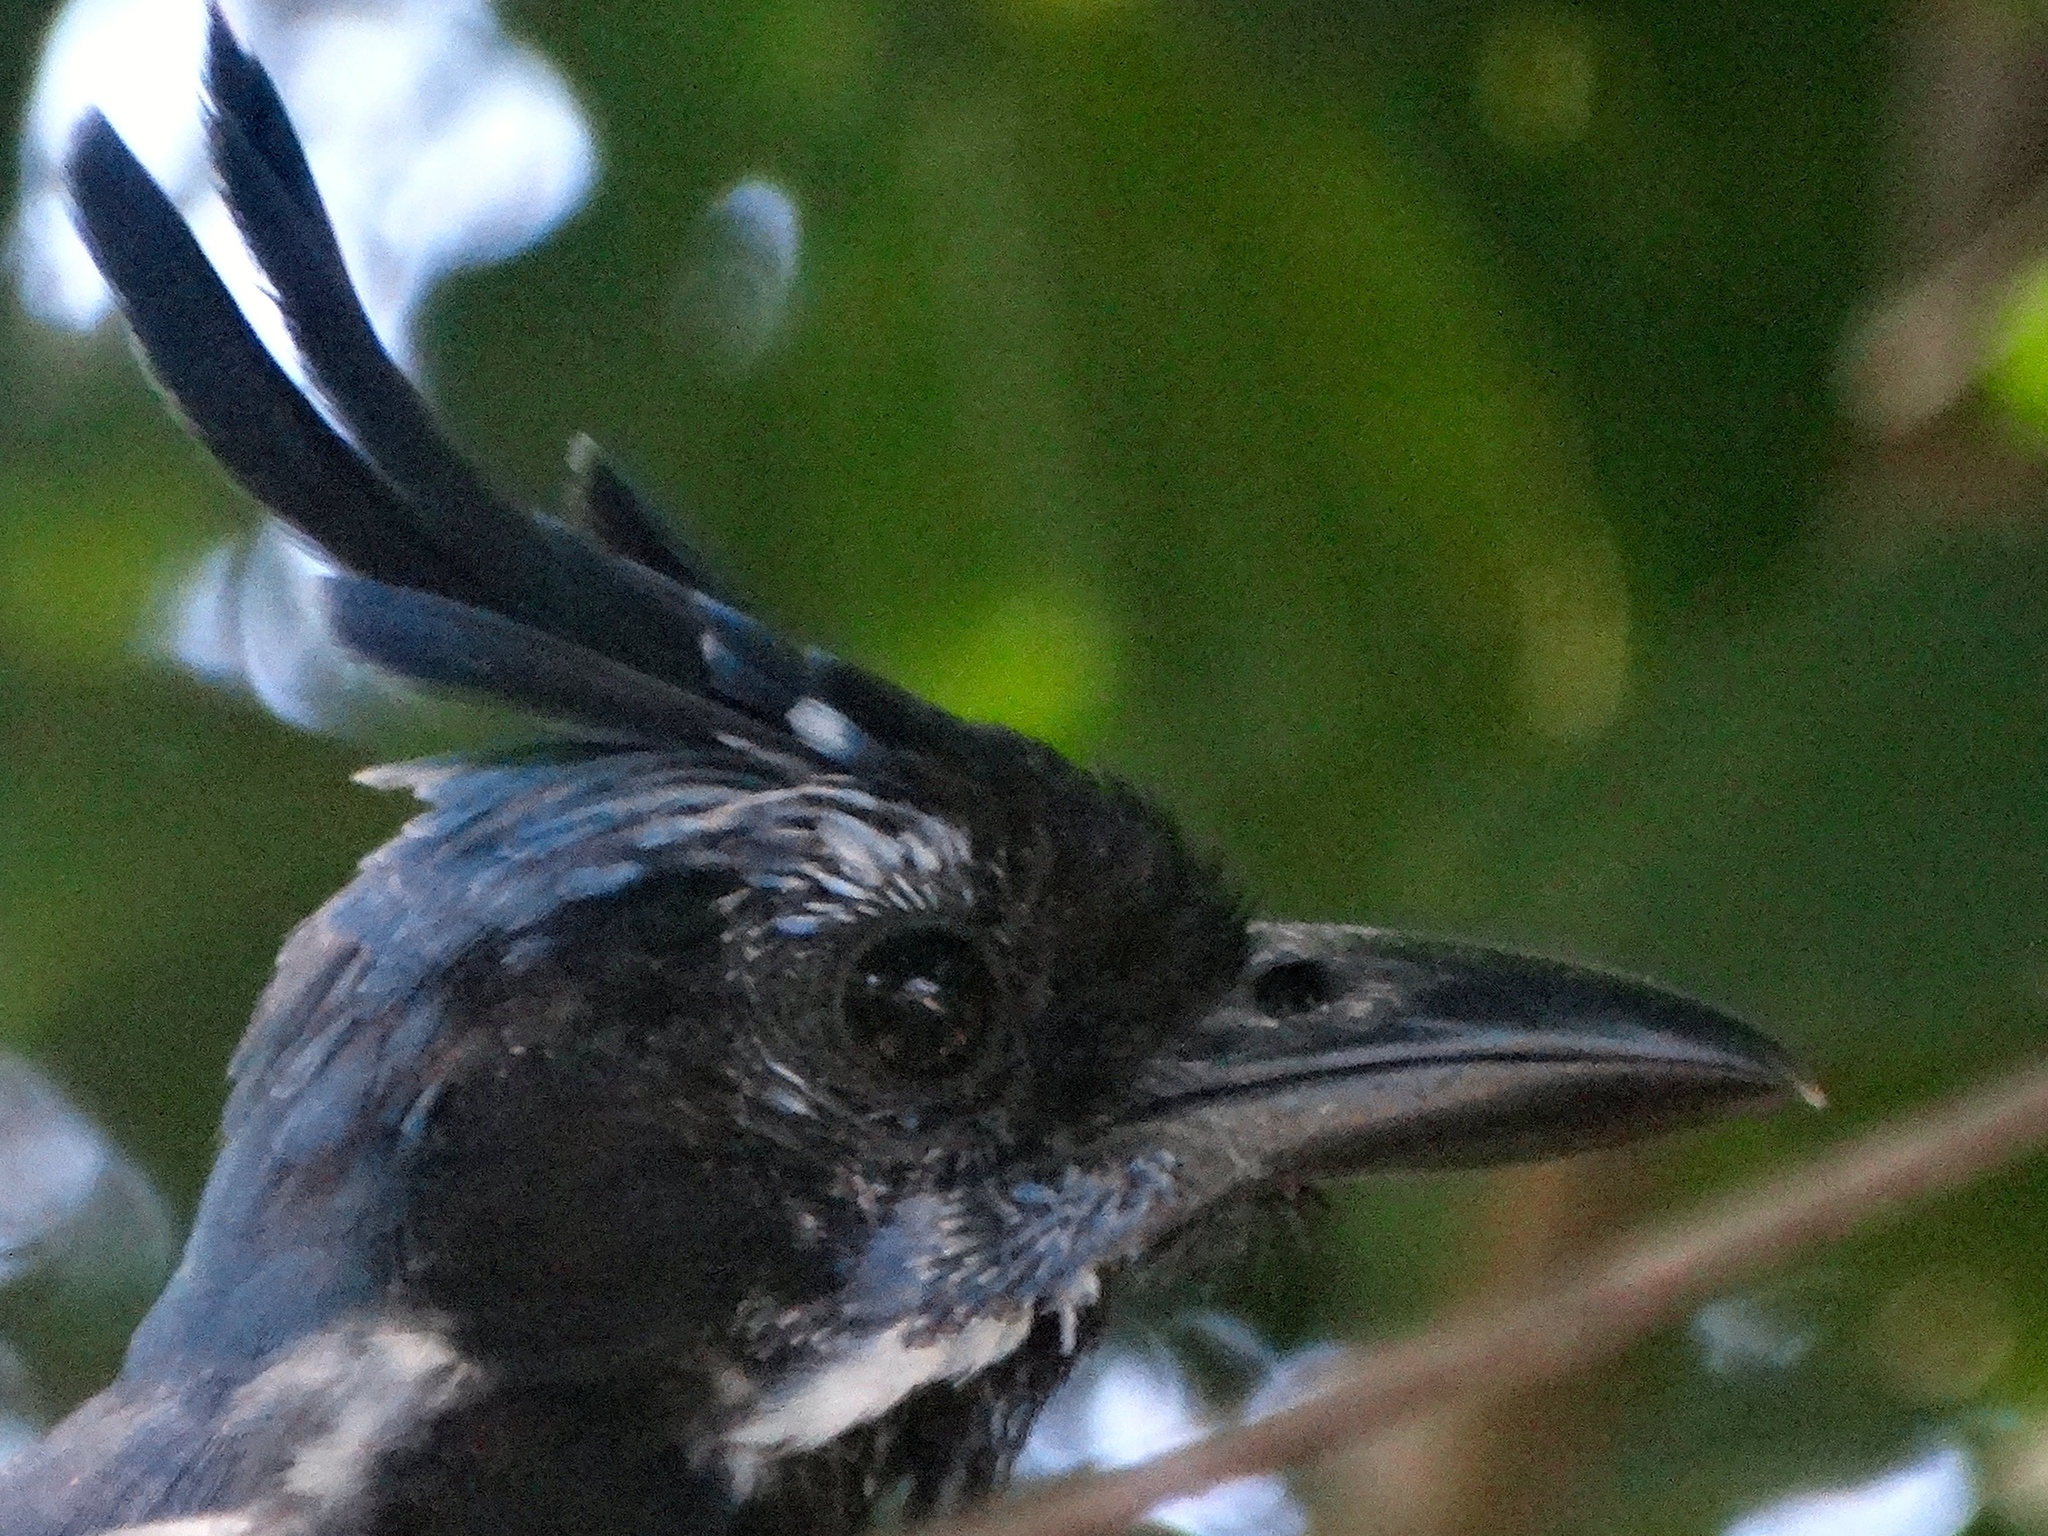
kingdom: Animalia
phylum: Chordata
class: Aves
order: Passeriformes
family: Corvidae
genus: Calocitta
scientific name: Calocitta colliei
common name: Black-throated magpie-jay
